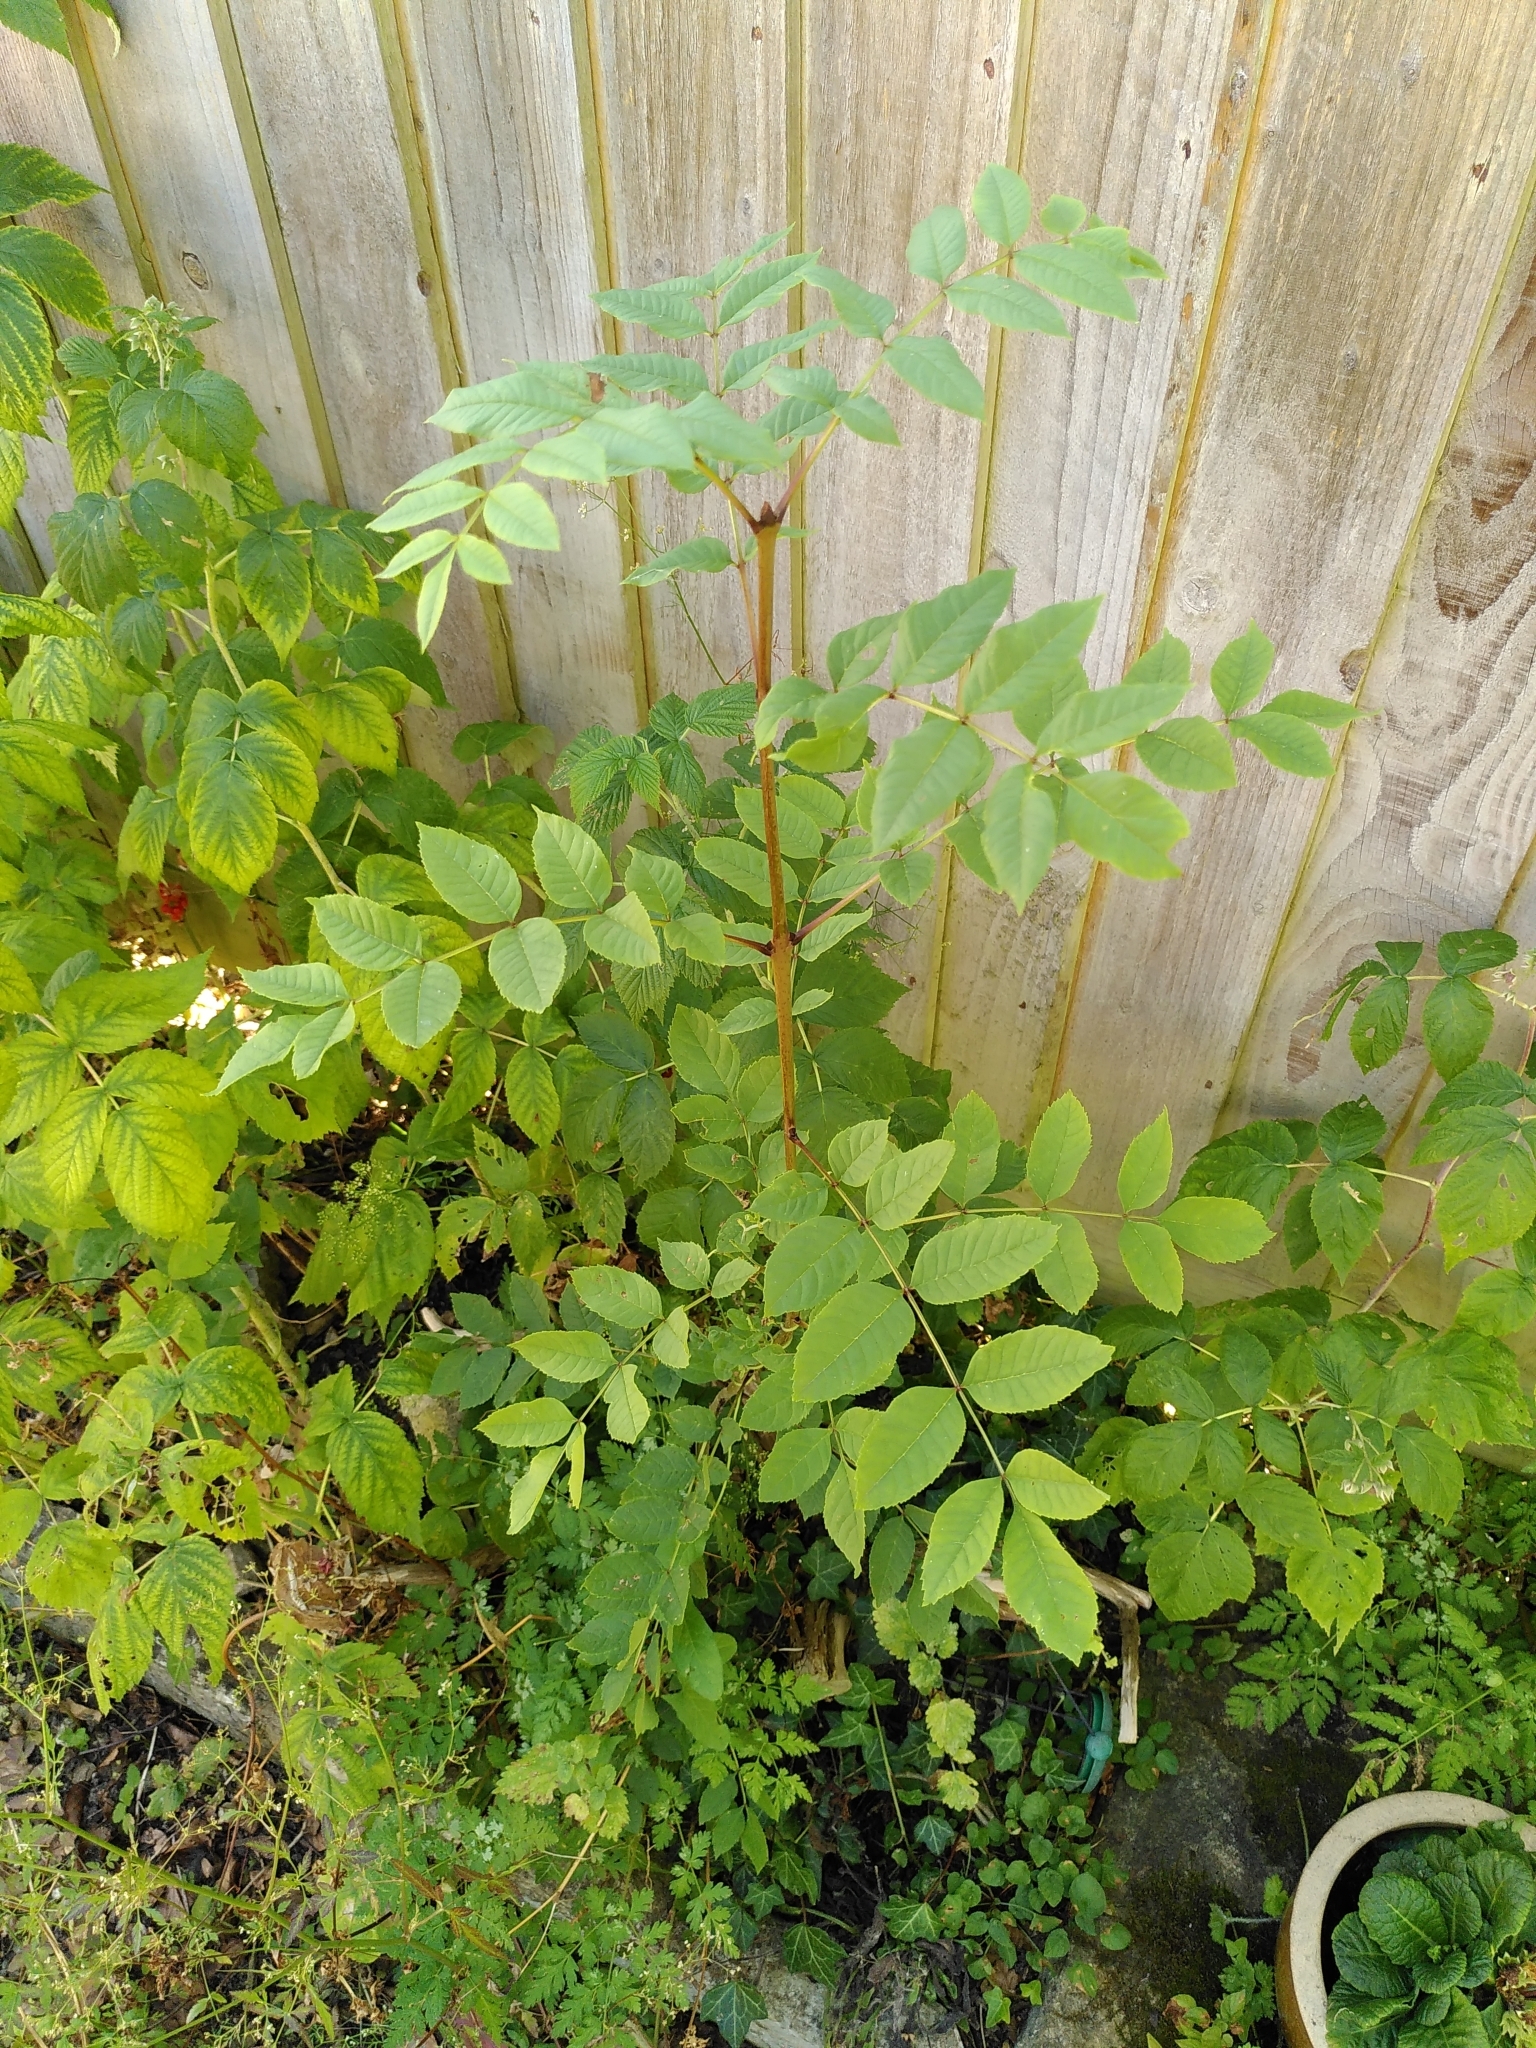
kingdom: Plantae
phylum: Tracheophyta
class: Magnoliopsida
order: Lamiales
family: Oleaceae
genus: Fraxinus
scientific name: Fraxinus excelsior
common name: European ash
